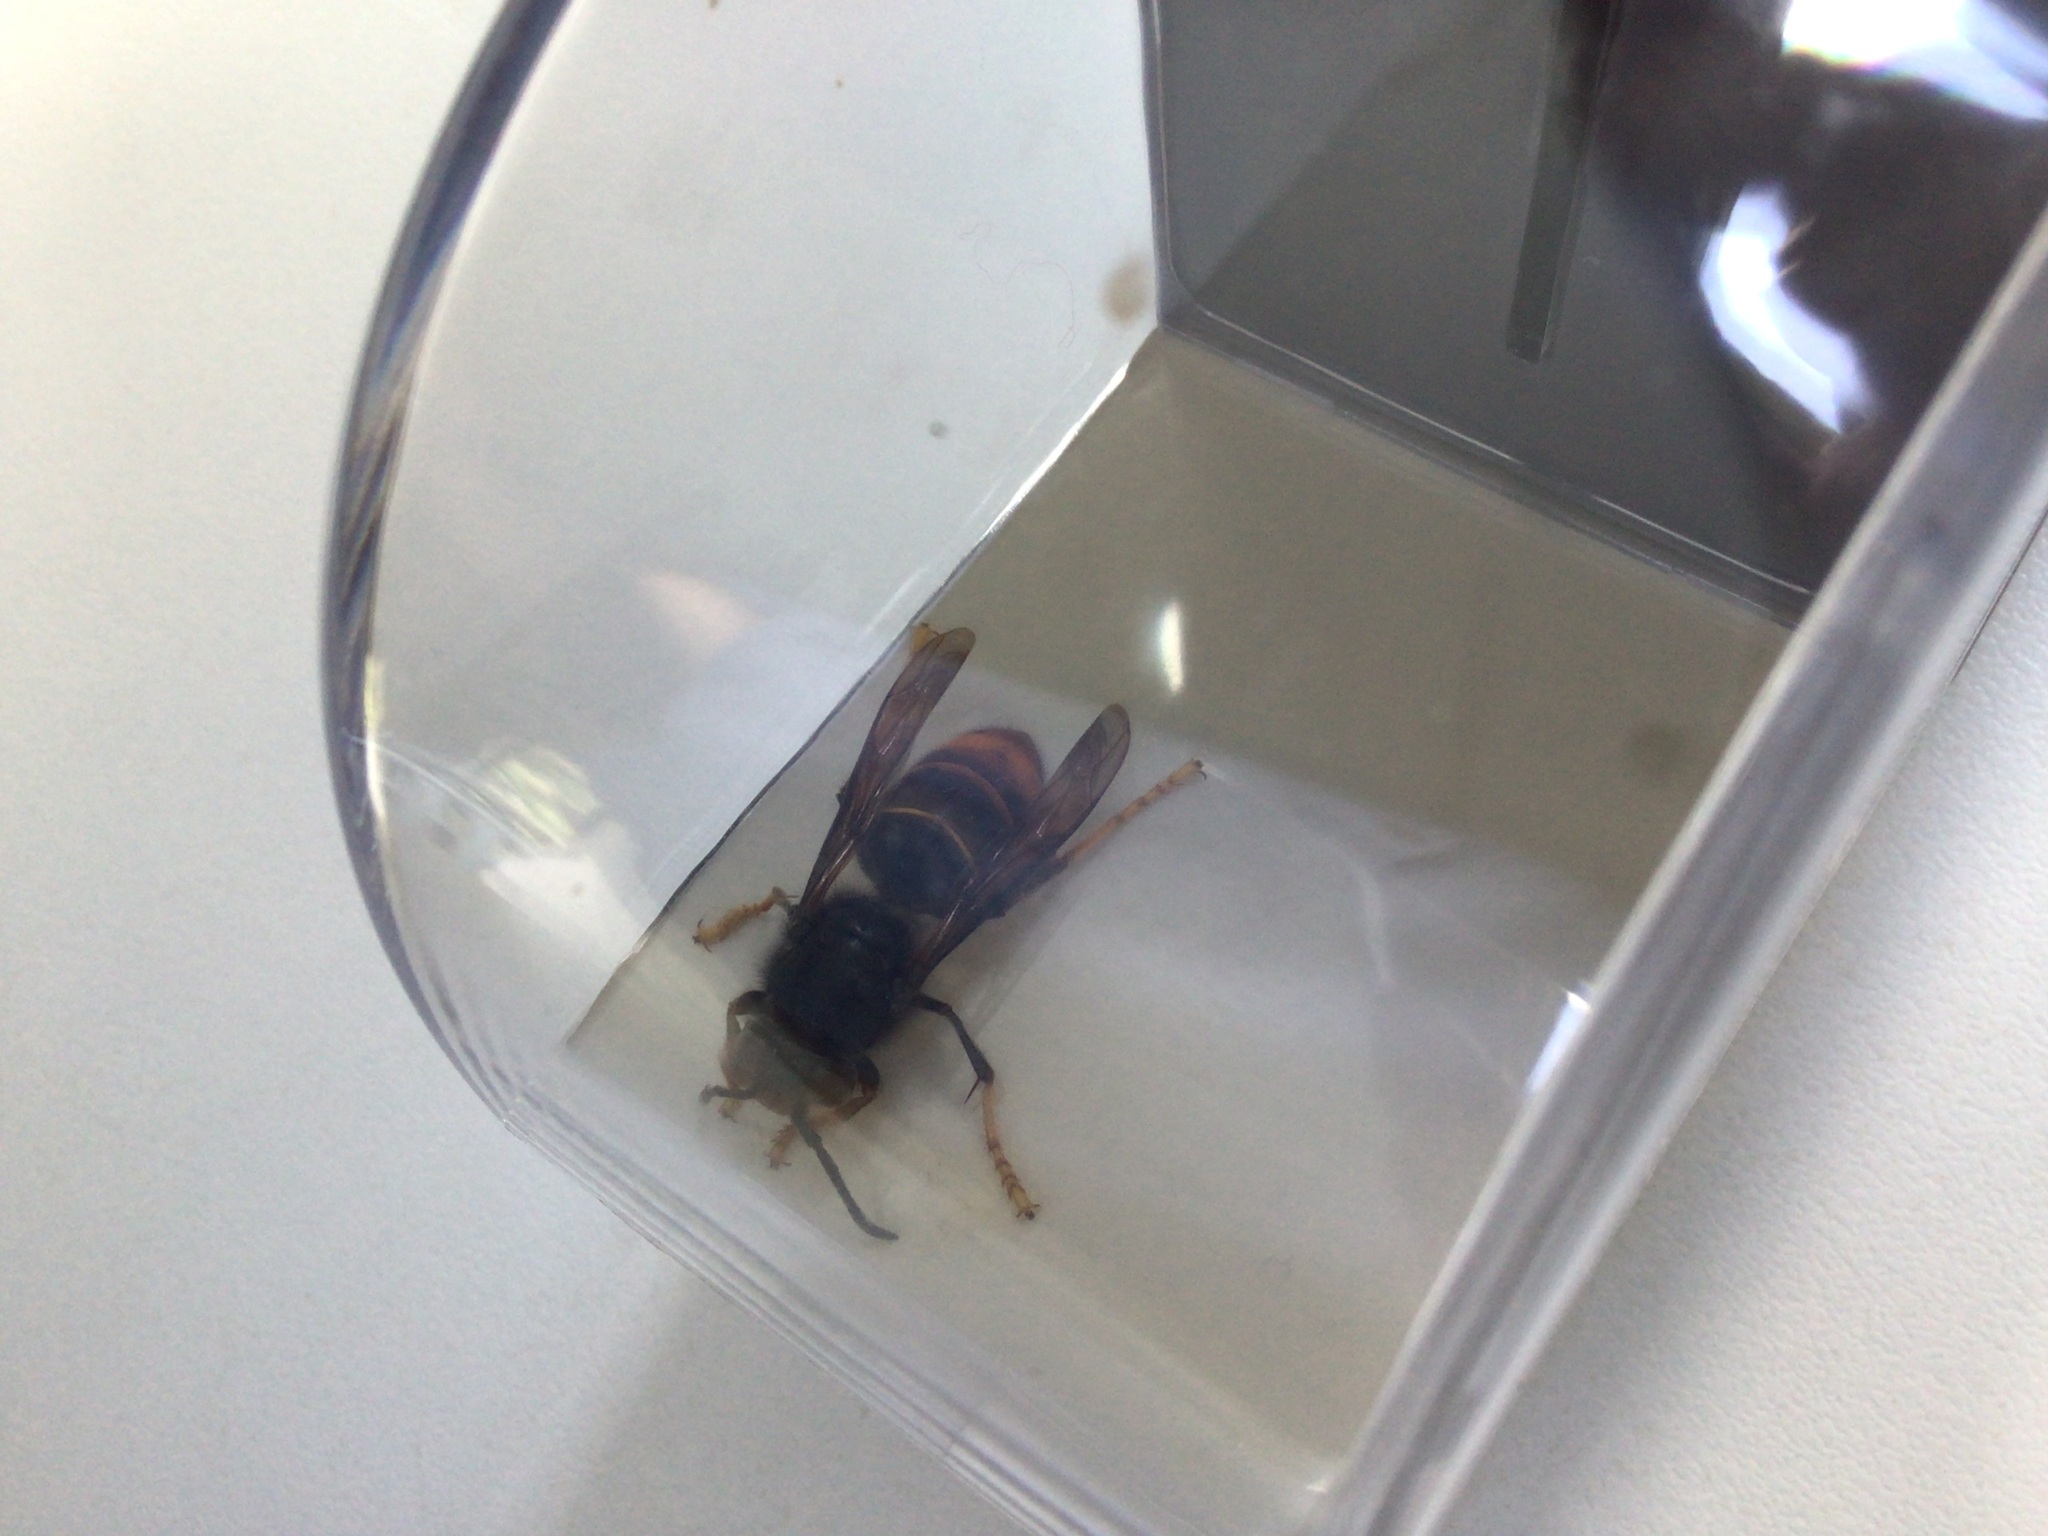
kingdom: Animalia
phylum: Arthropoda
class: Insecta
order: Hymenoptera
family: Vespidae
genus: Vespa
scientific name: Vespa velutina
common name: Asian hornet
